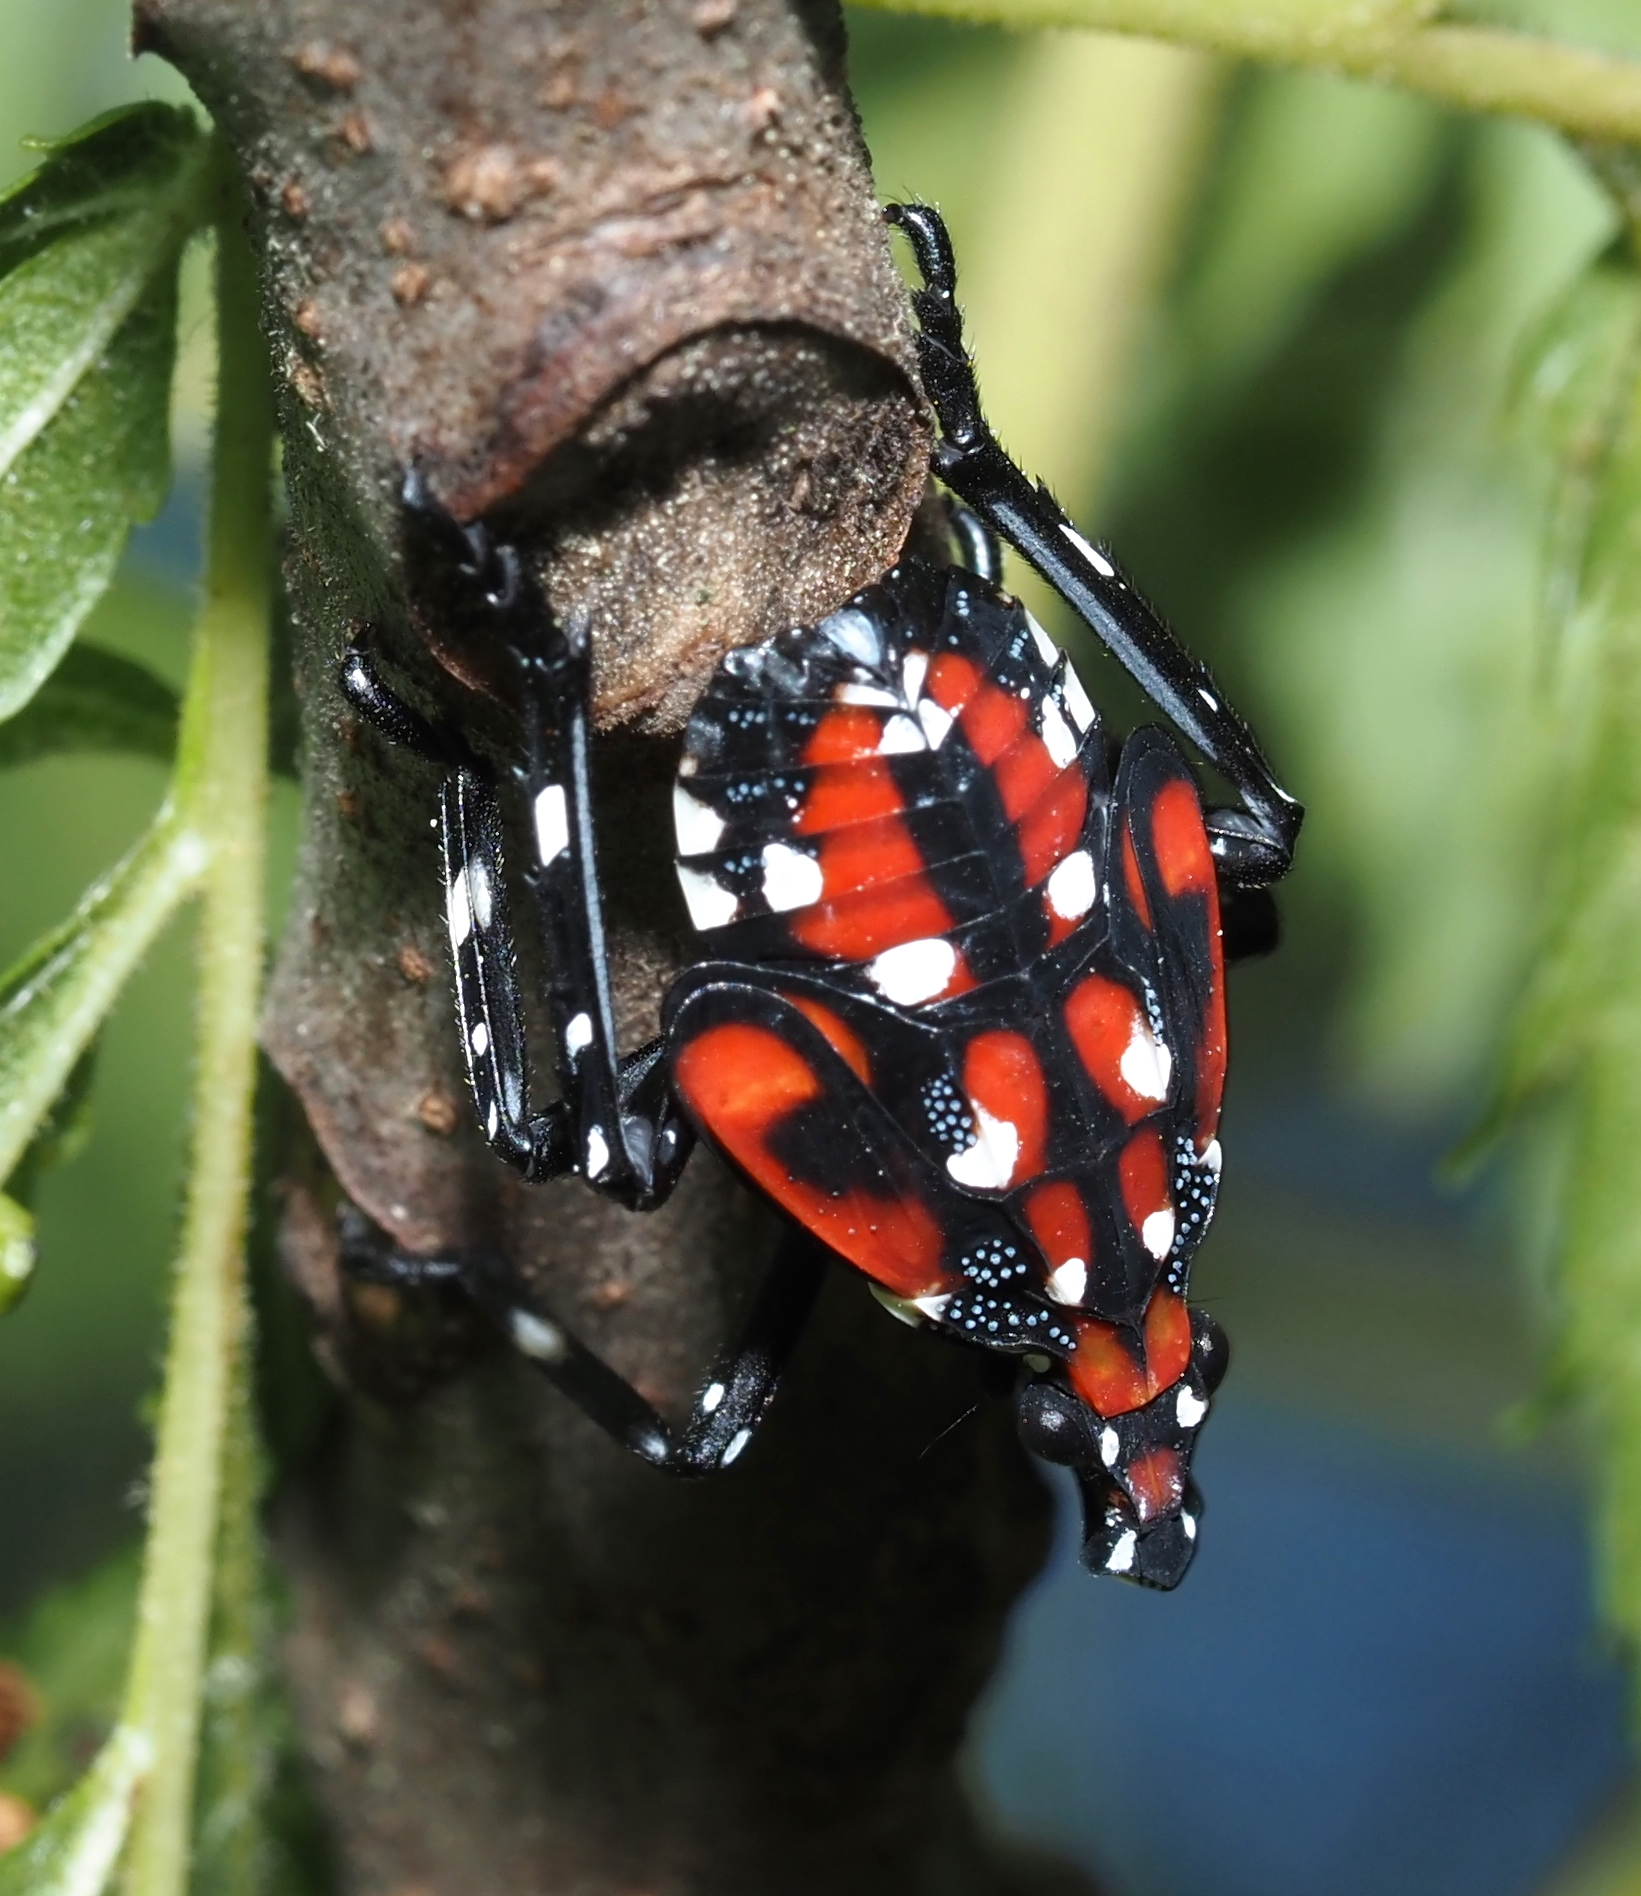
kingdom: Animalia
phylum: Arthropoda
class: Insecta
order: Hemiptera
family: Fulgoridae
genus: Lycorma
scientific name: Lycorma delicatula
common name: Spotted lanternfly
